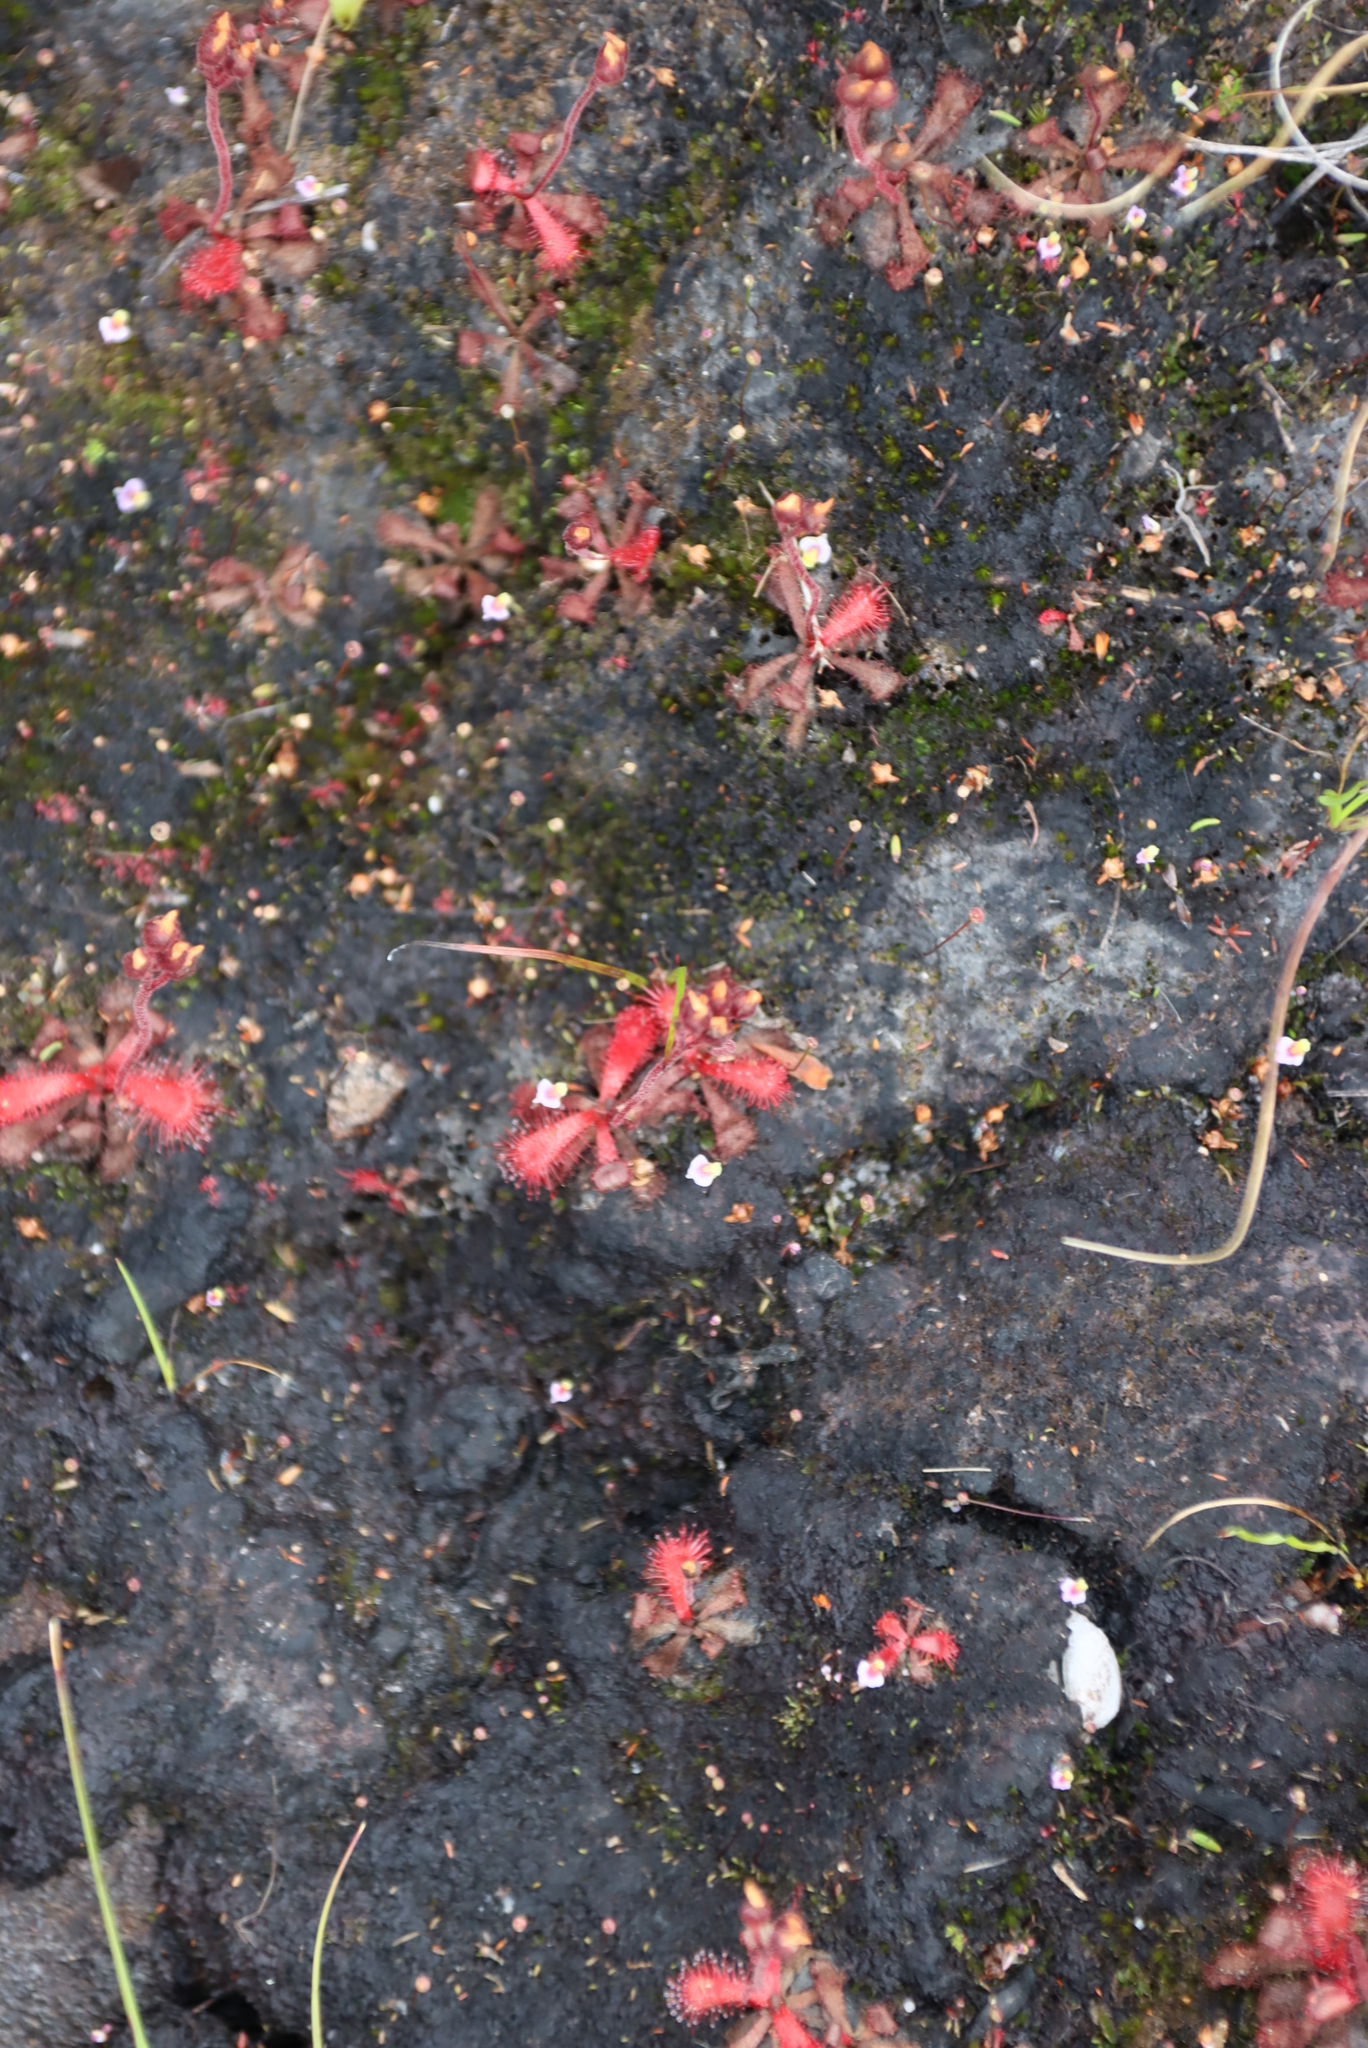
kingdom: Plantae
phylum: Tracheophyta
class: Magnoliopsida
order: Lamiales
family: Lentibulariaceae
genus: Utricularia
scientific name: Utricularia bisquamata
